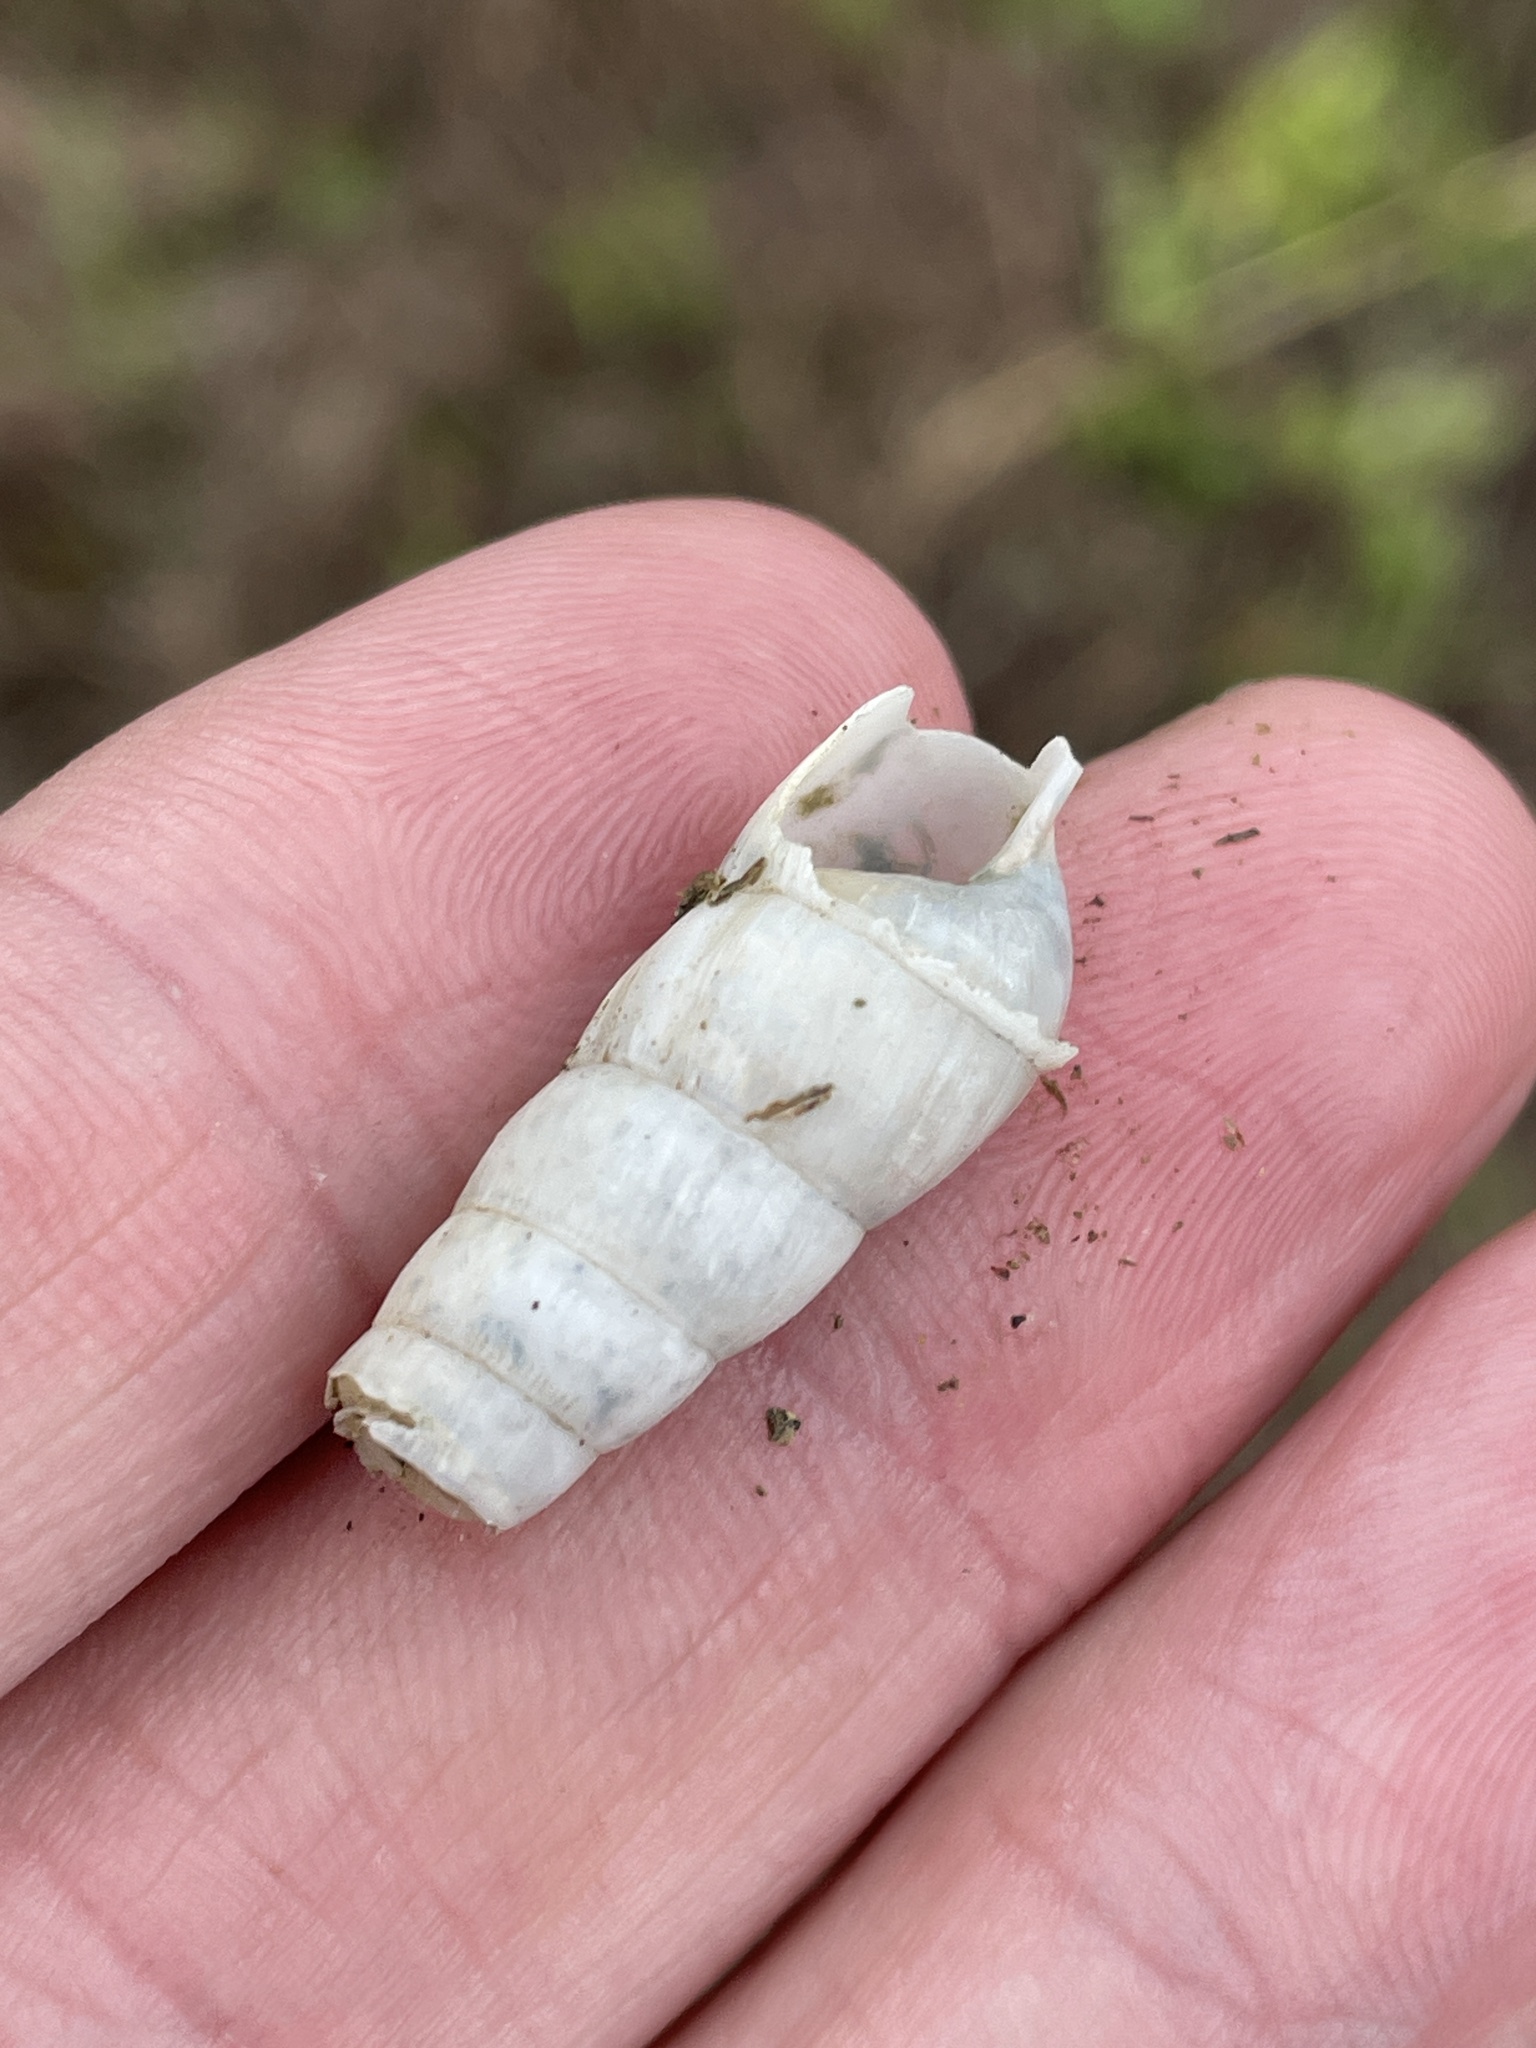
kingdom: Animalia
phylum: Mollusca
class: Gastropoda
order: Stylommatophora
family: Achatinidae
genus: Rumina
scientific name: Rumina decollata
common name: Decollate snail
